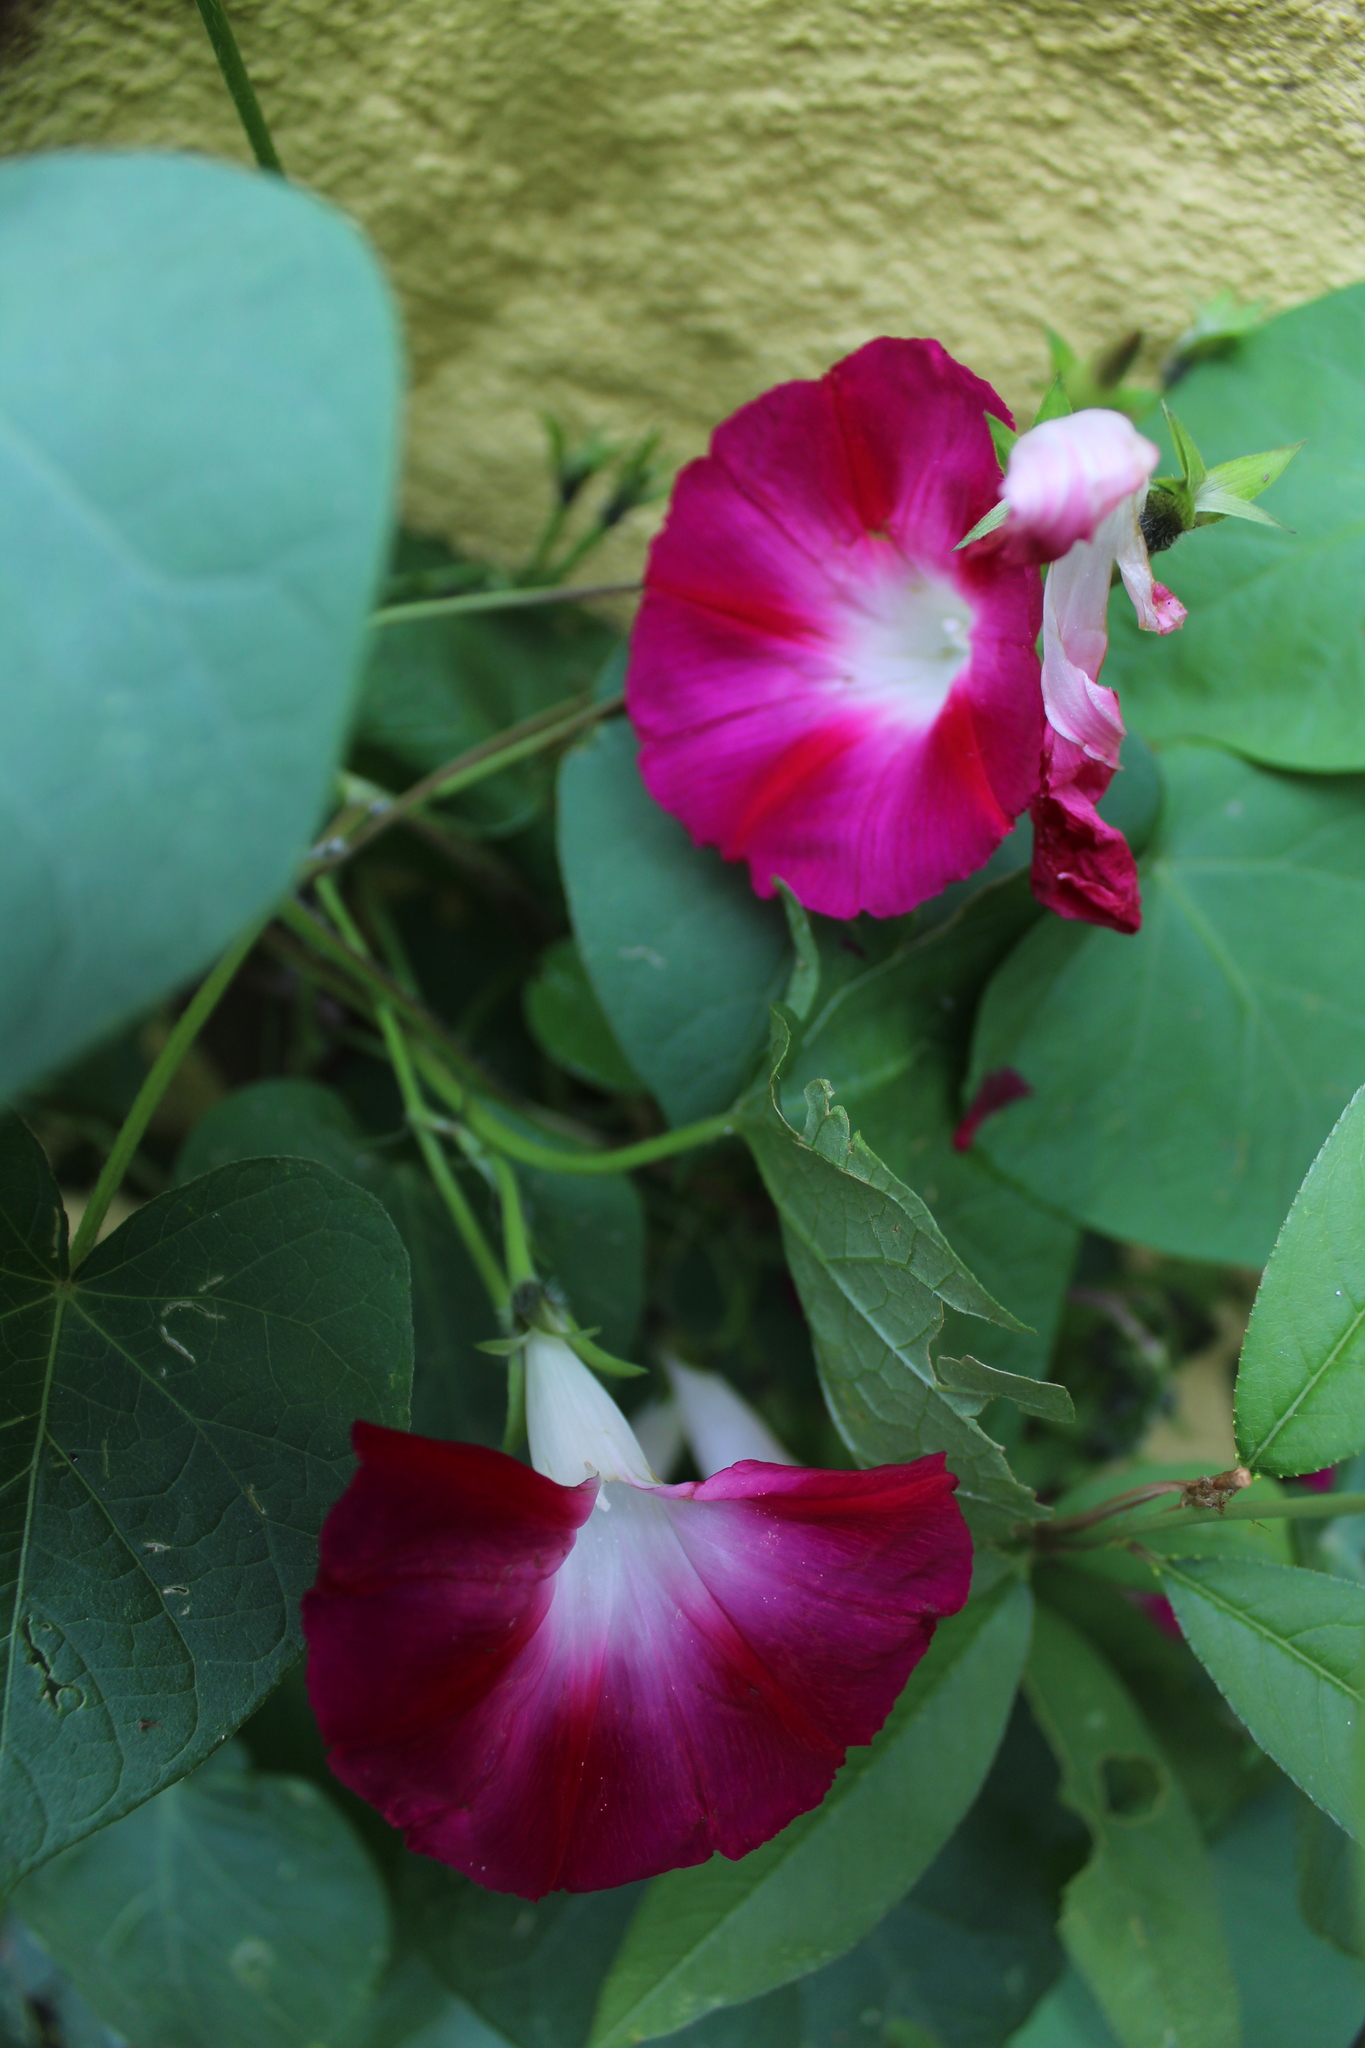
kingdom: Plantae
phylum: Tracheophyta
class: Magnoliopsida
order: Solanales
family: Convolvulaceae
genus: Ipomoea
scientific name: Ipomoea purpurea
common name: Common morning-glory
